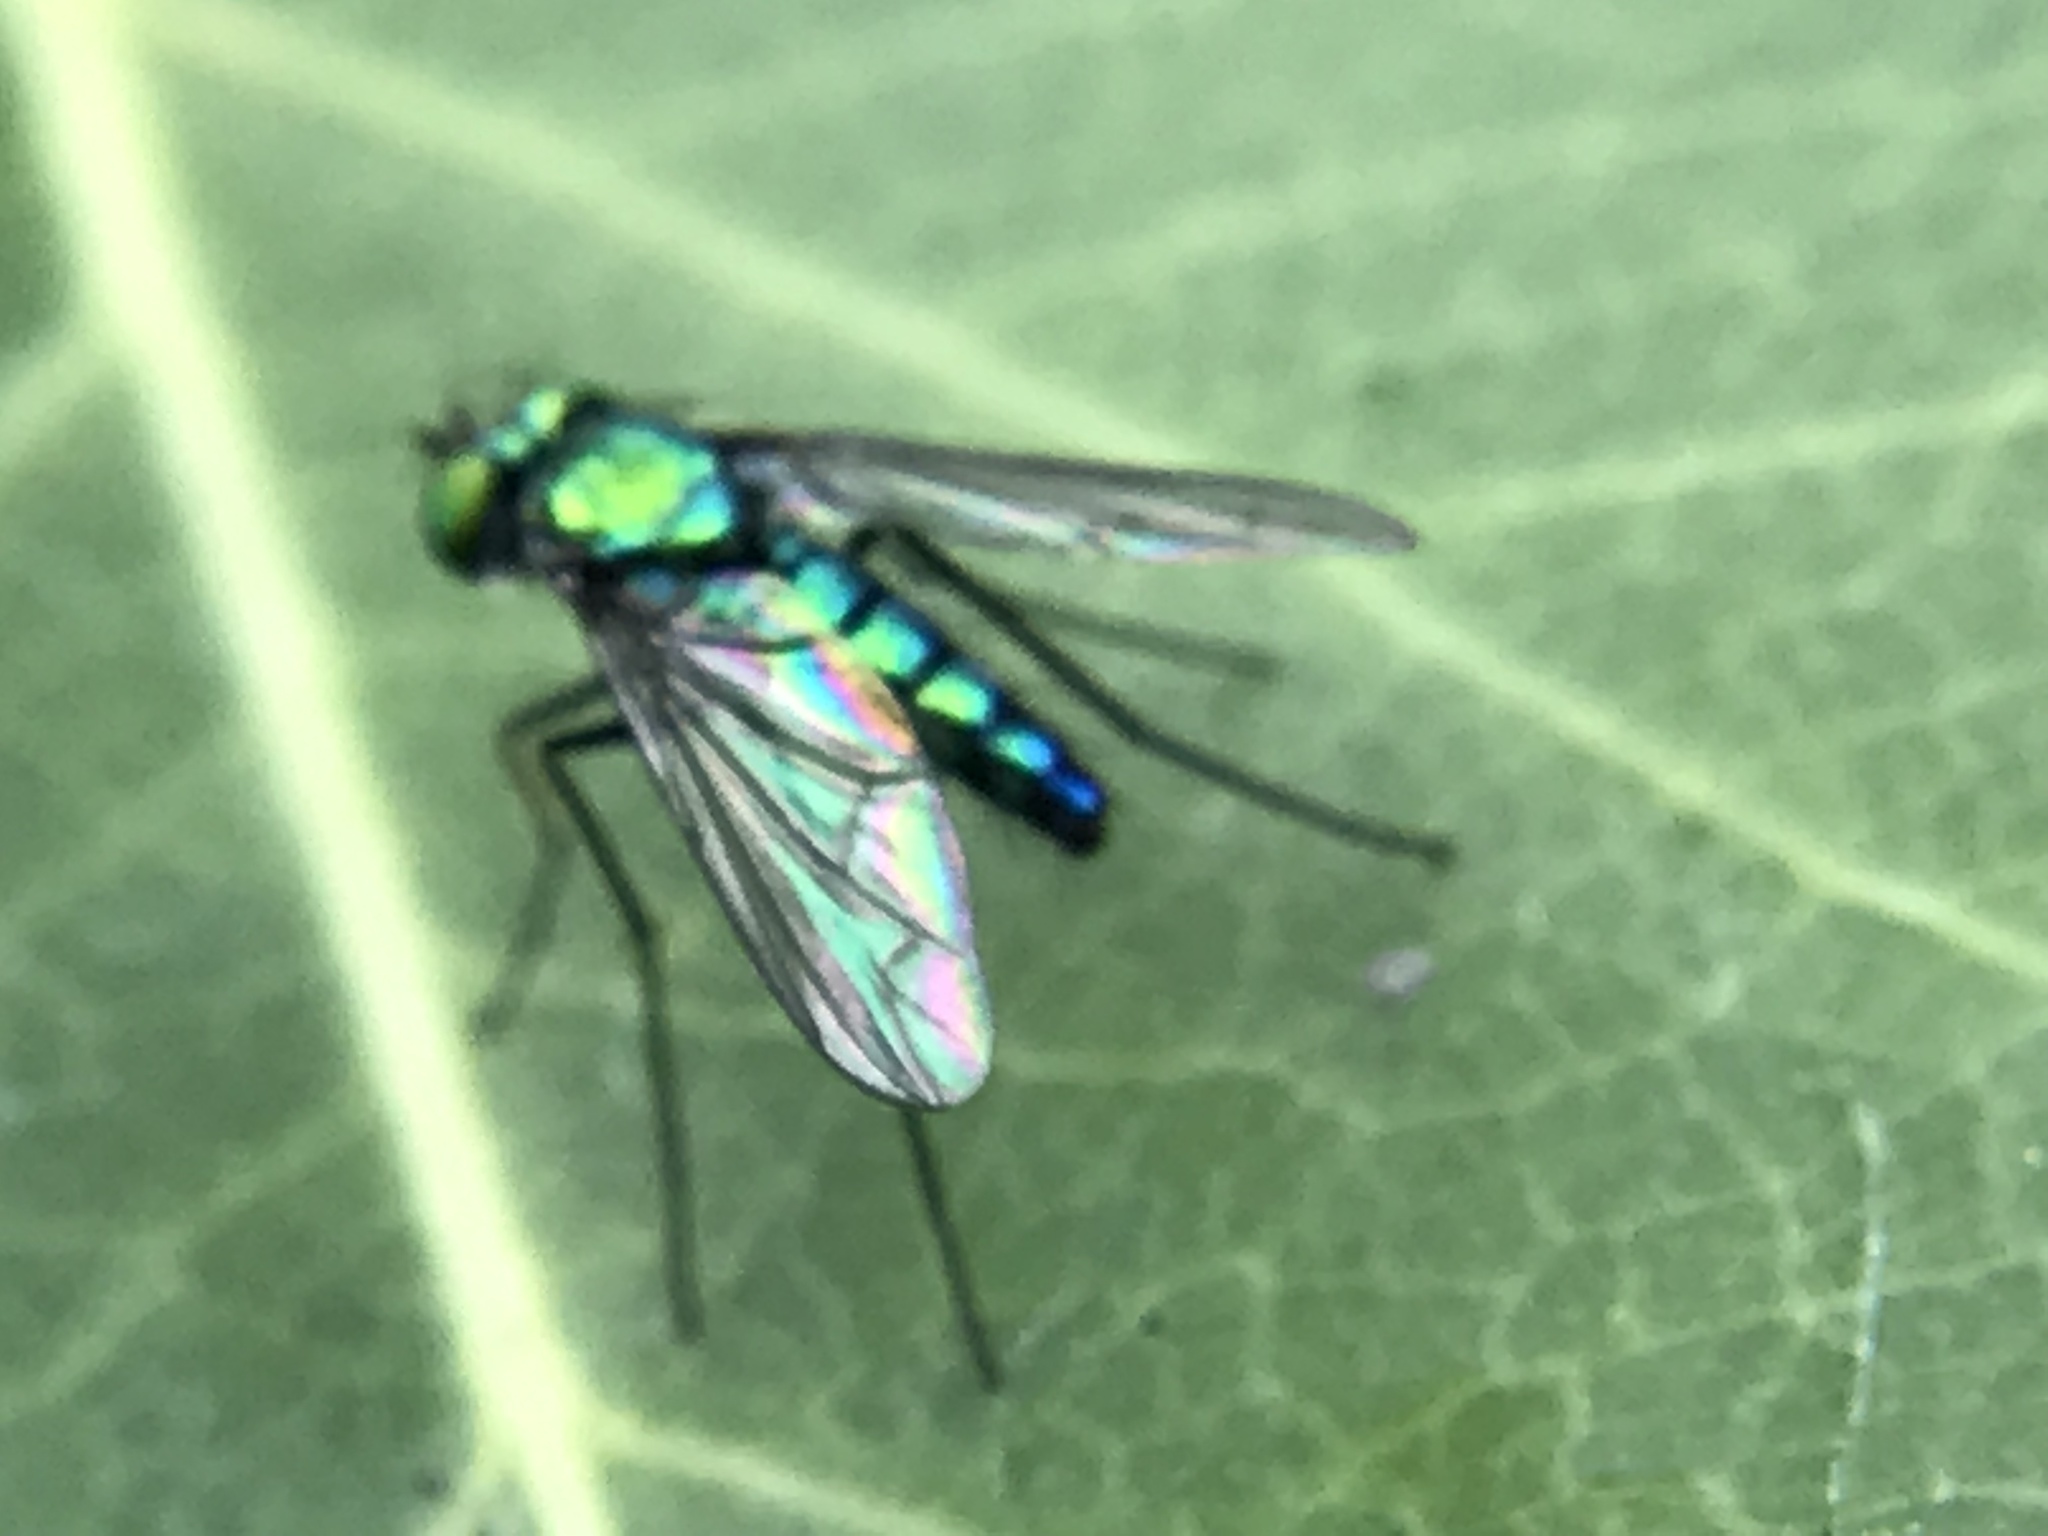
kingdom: Animalia
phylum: Arthropoda
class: Insecta
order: Diptera
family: Dolichopodidae
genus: Condylostylus
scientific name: Condylostylus longicornis
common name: Long-legged fly
